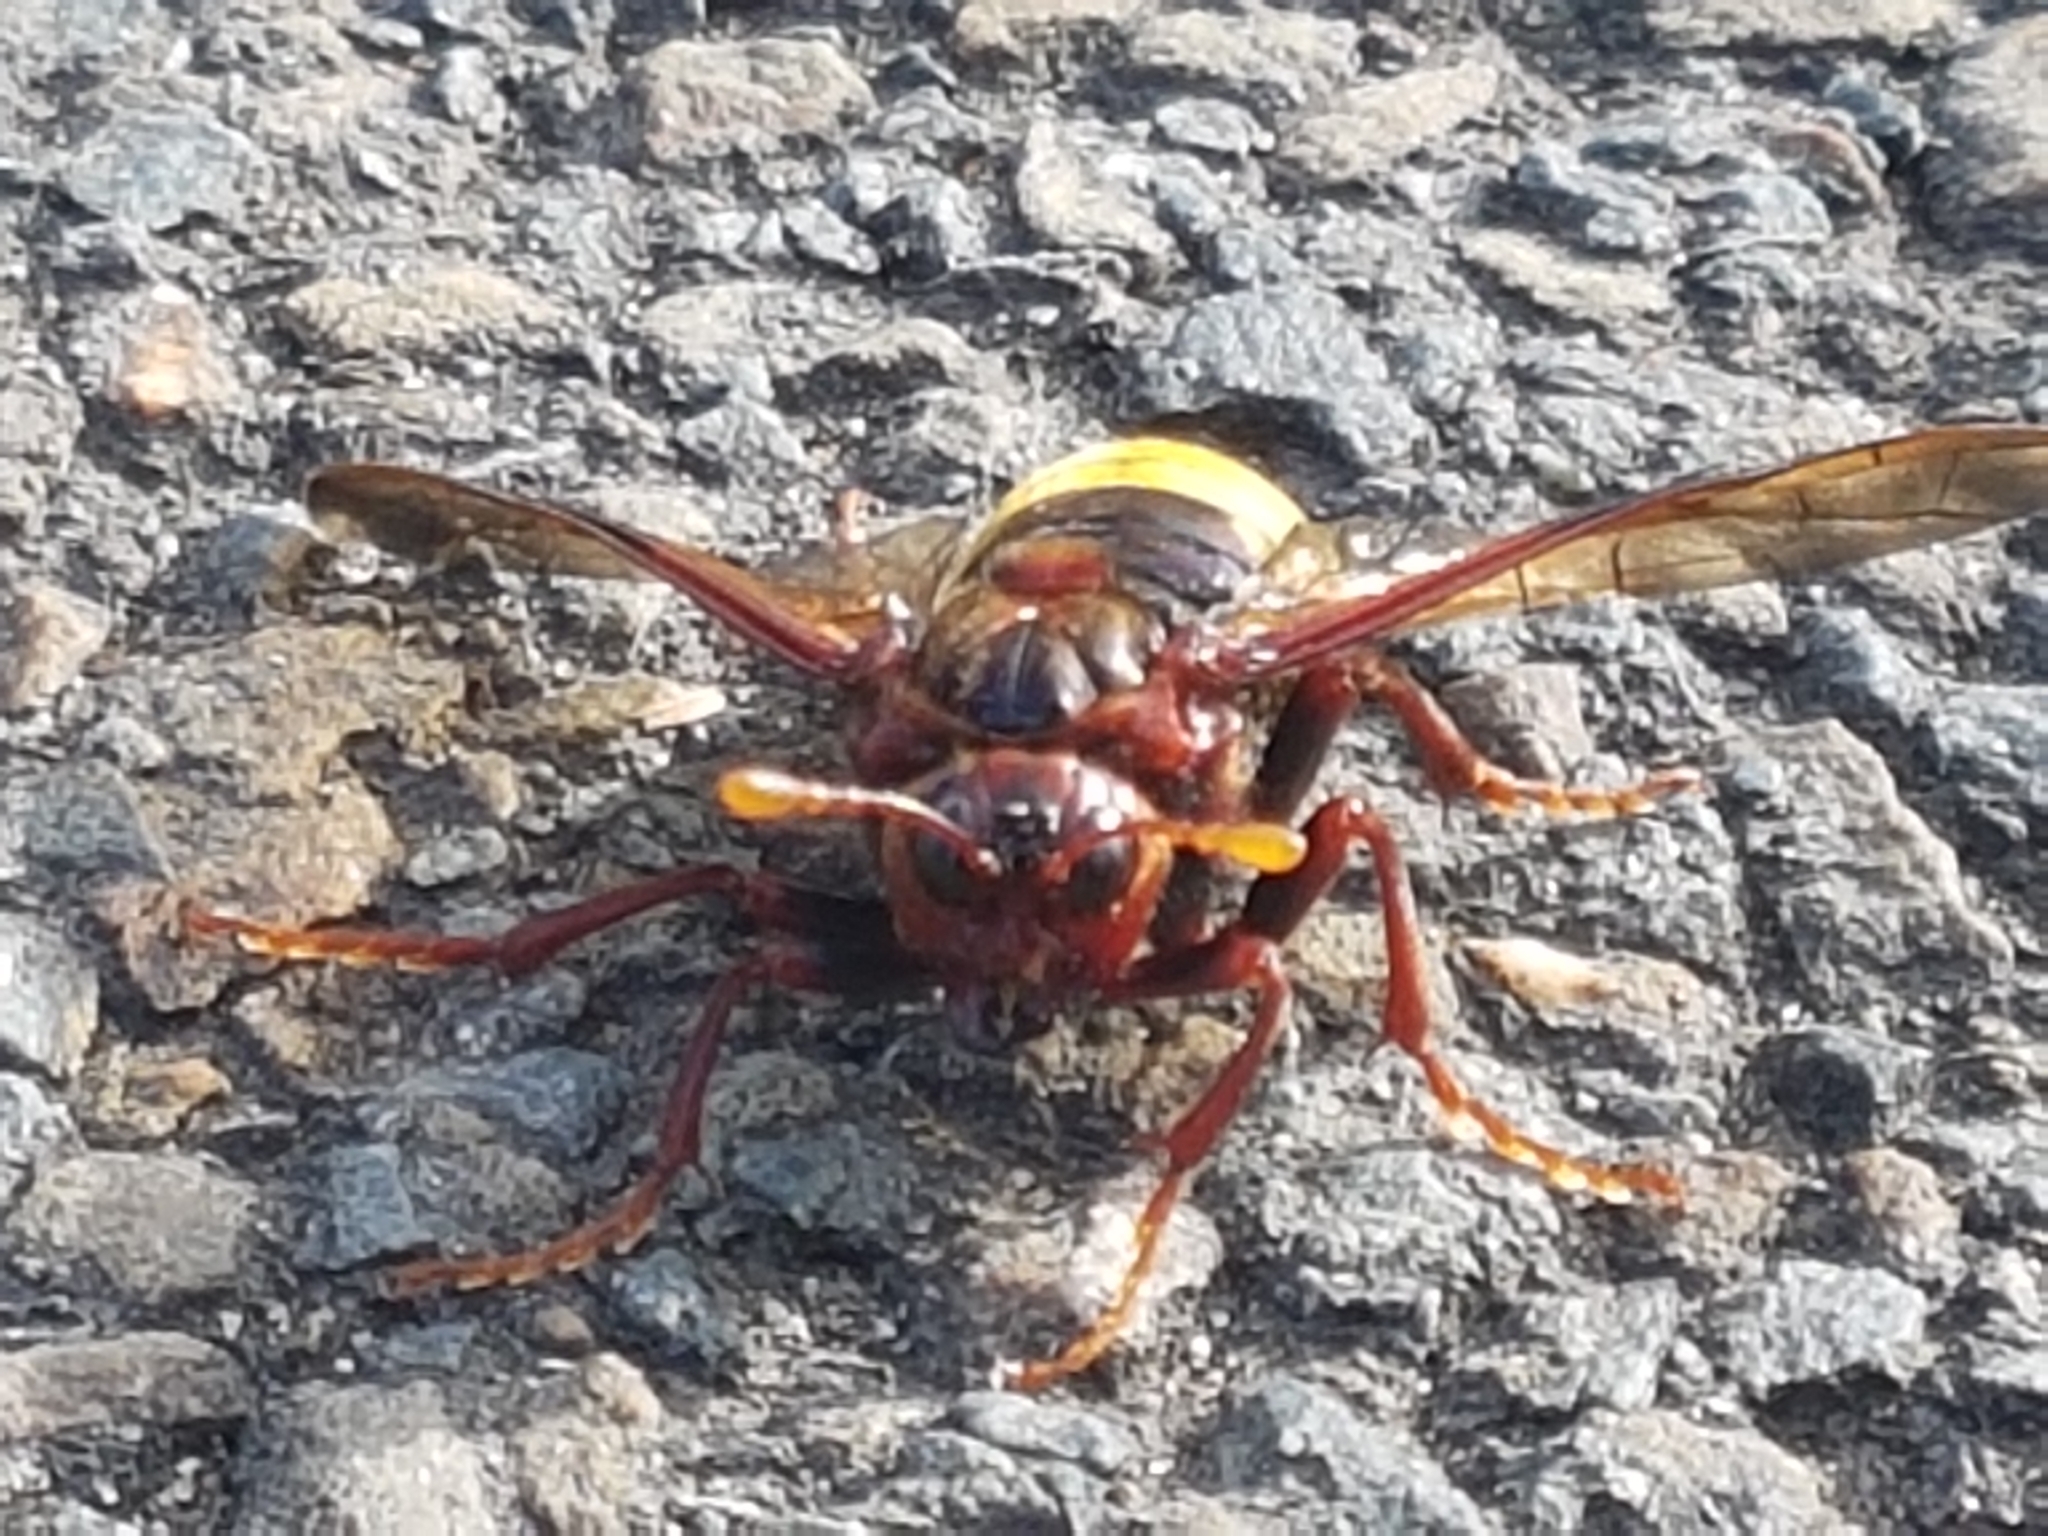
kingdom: Animalia
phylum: Arthropoda
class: Insecta
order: Hymenoptera
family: Cimbicidae
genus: Cimbex
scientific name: Cimbex connatus
